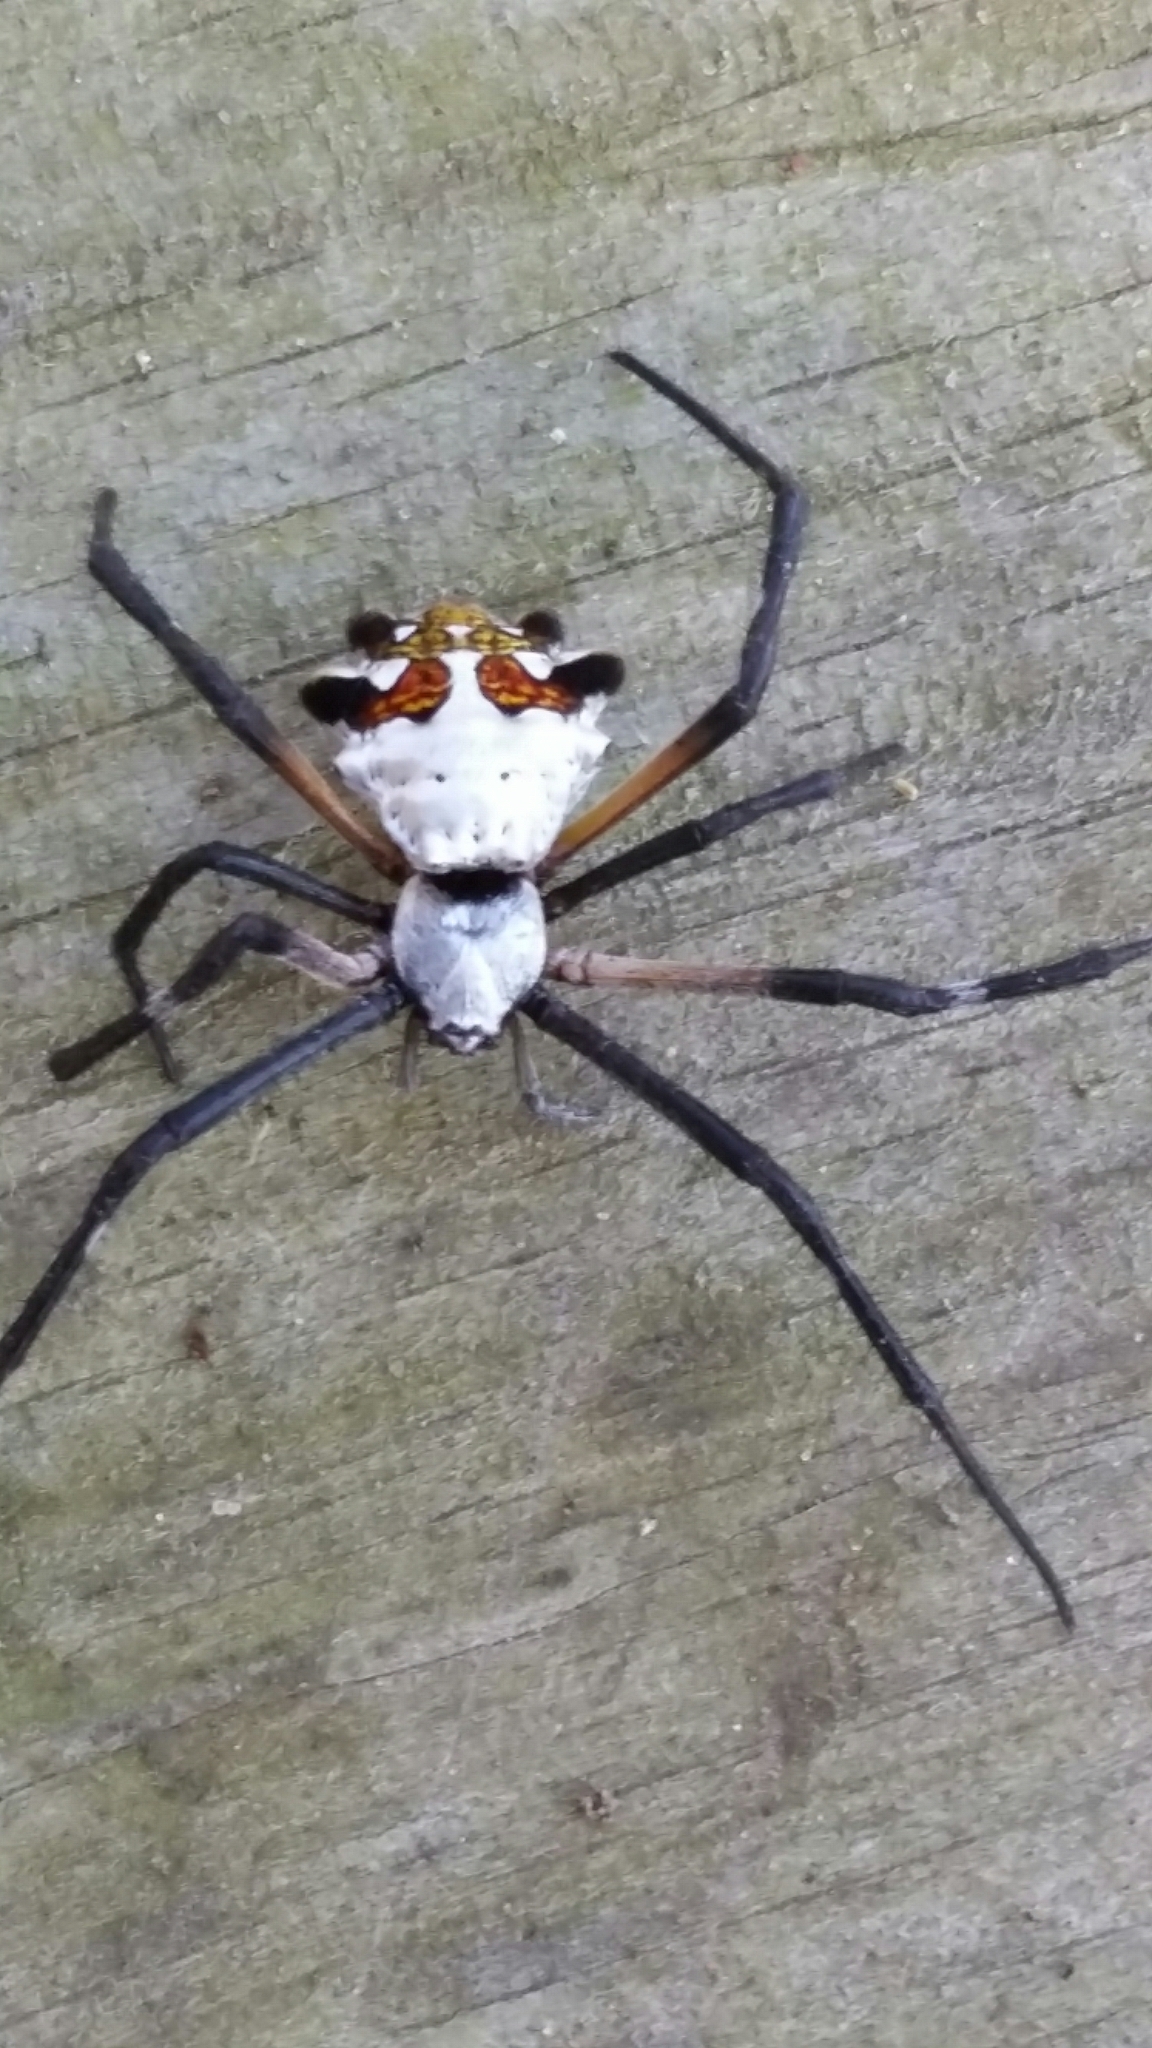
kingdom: Animalia
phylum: Arthropoda
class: Arachnida
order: Araneae
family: Araneidae
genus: Argiope
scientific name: Argiope argentata
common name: Orb weavers
